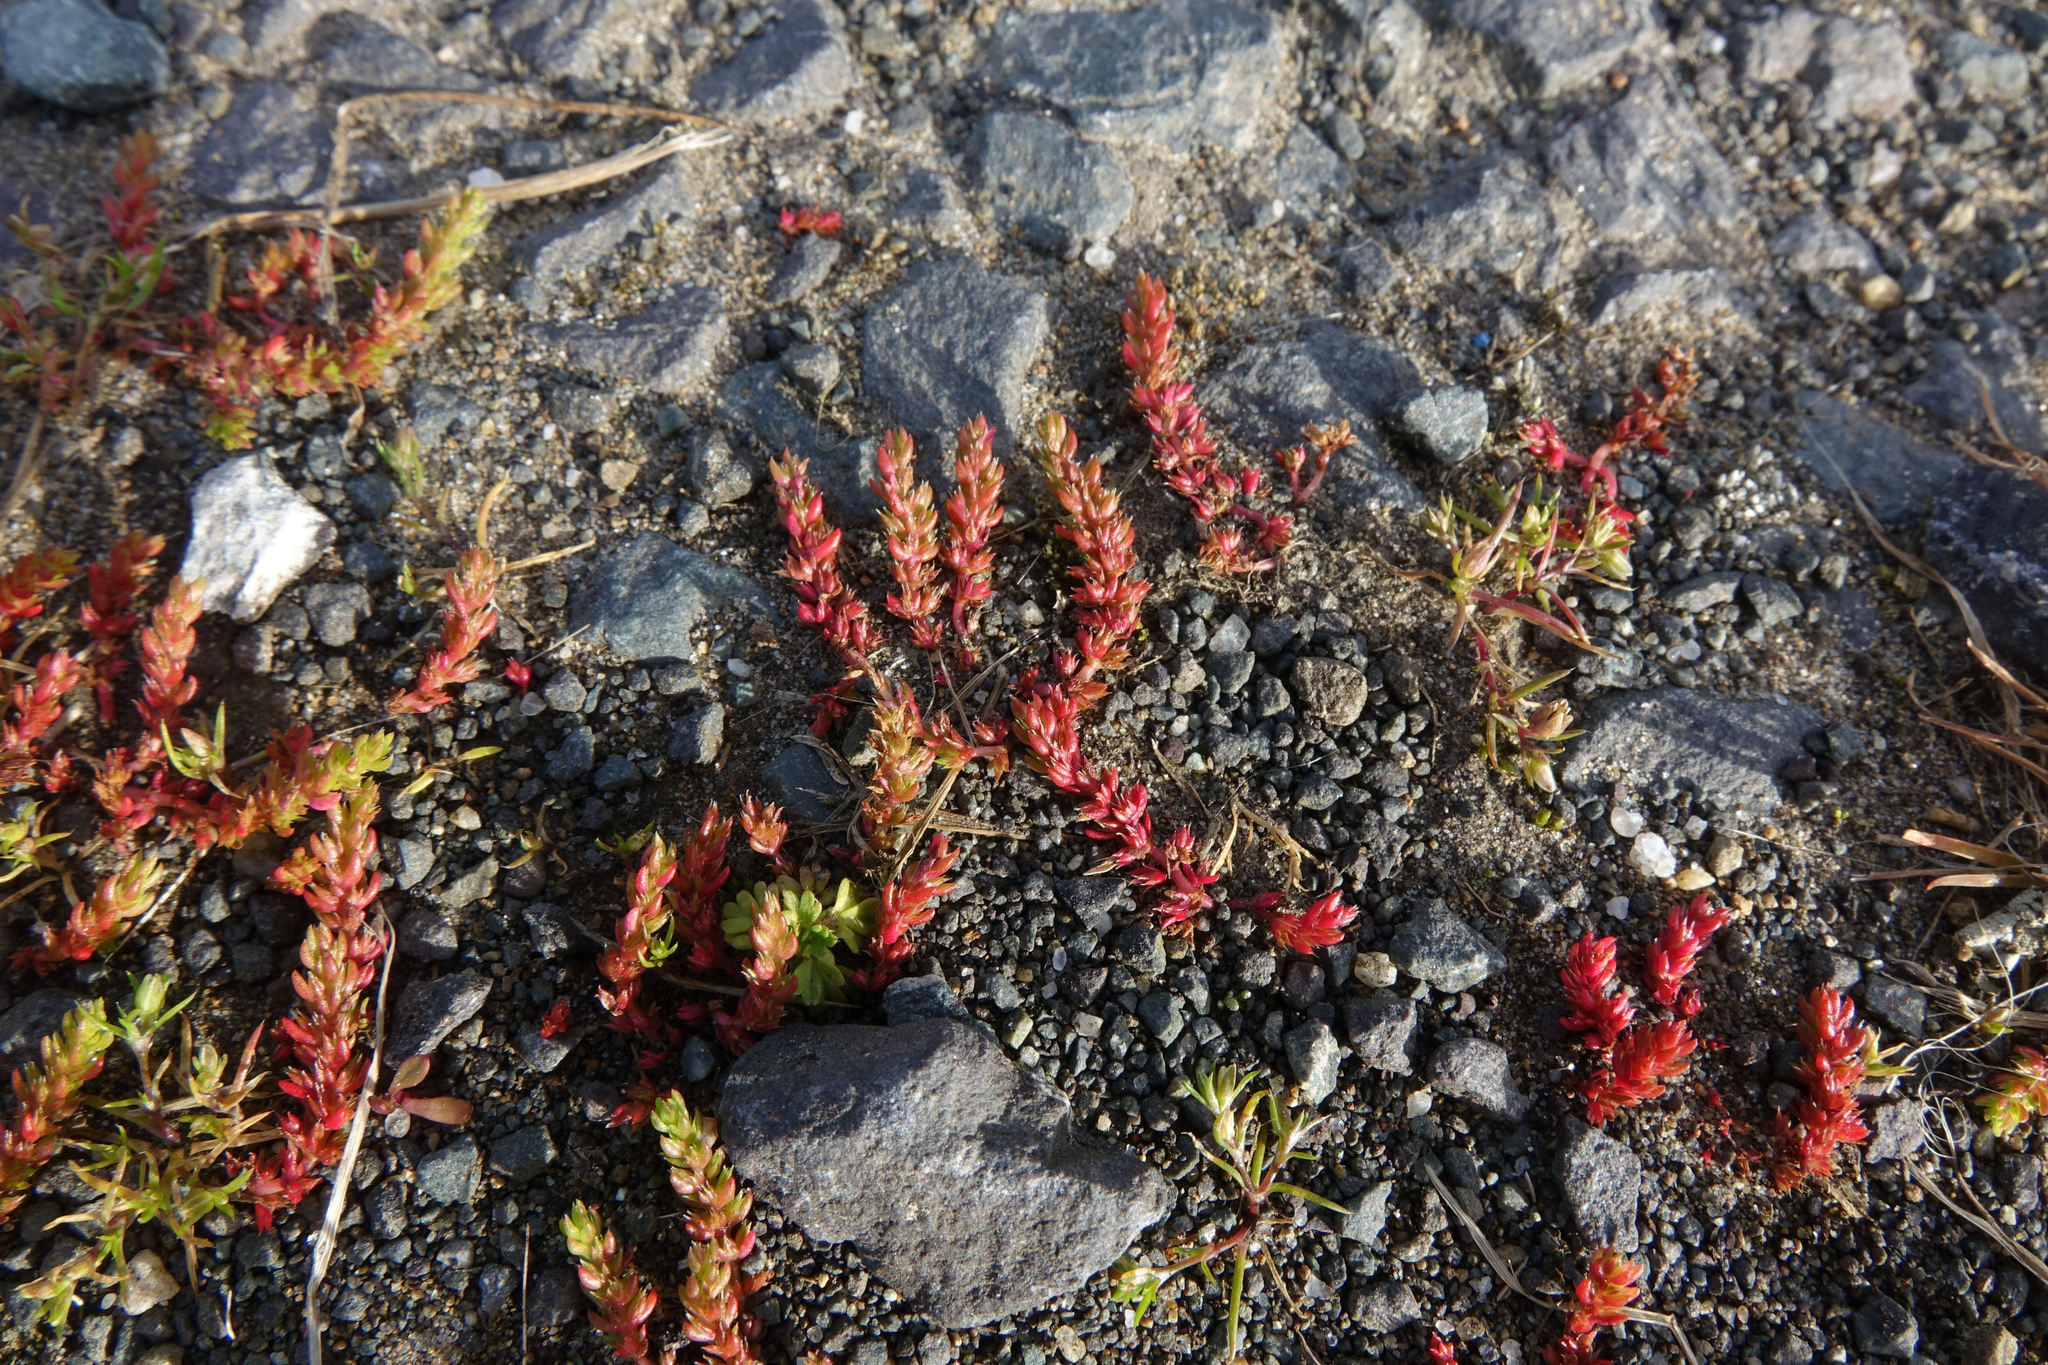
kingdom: Plantae
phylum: Tracheophyta
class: Magnoliopsida
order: Saxifragales
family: Crassulaceae
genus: Crassula
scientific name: Crassula alata
